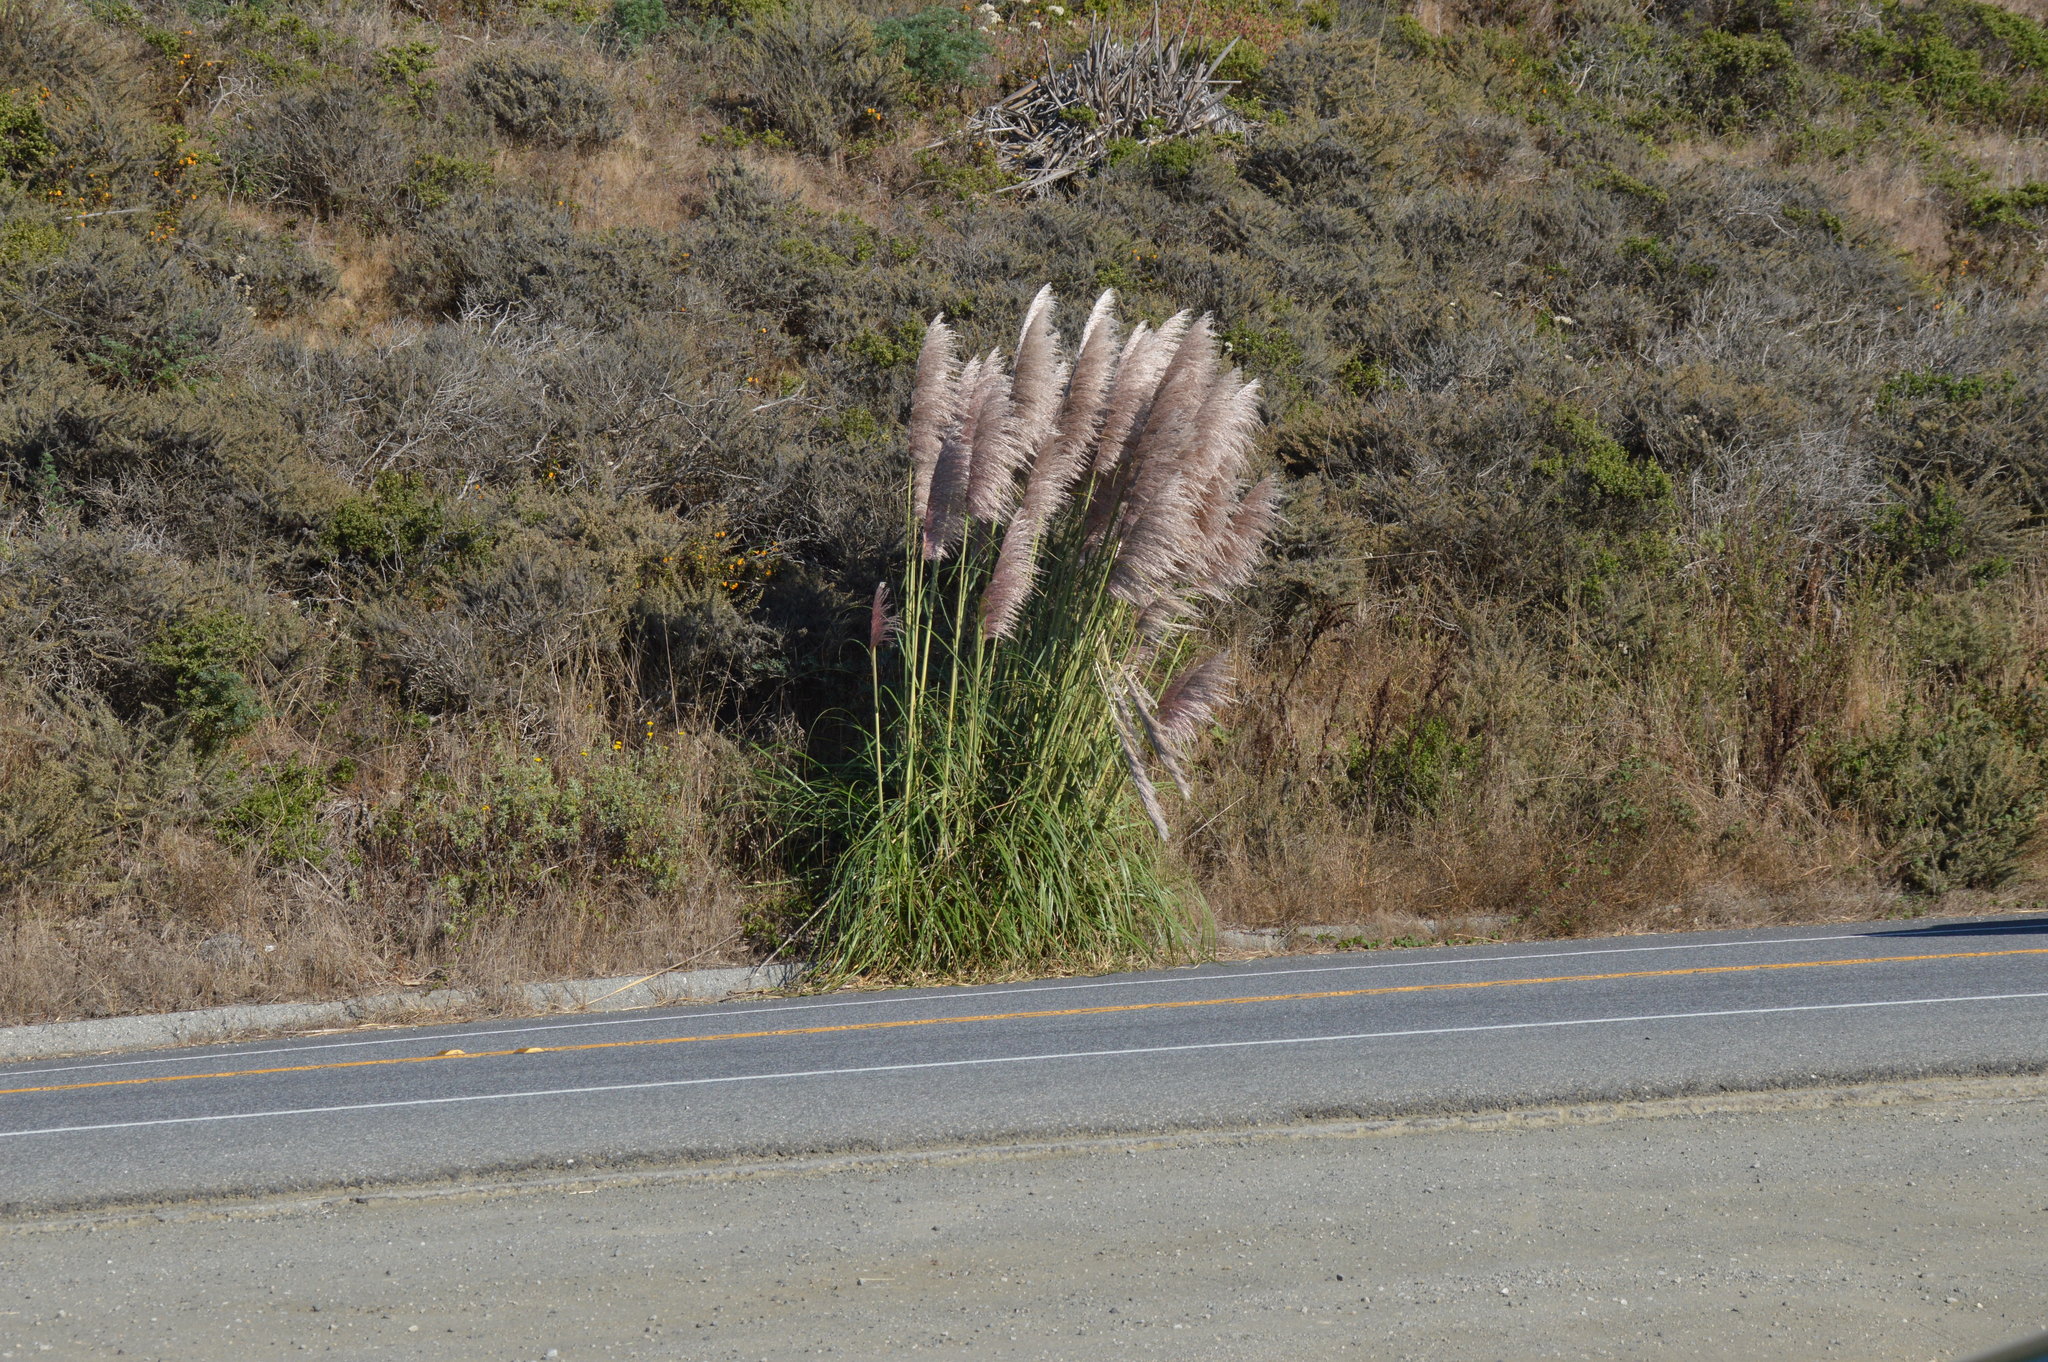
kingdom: Plantae
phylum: Tracheophyta
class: Liliopsida
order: Poales
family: Poaceae
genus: Cortaderia
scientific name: Cortaderia selloana
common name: Uruguayan pampas grass
